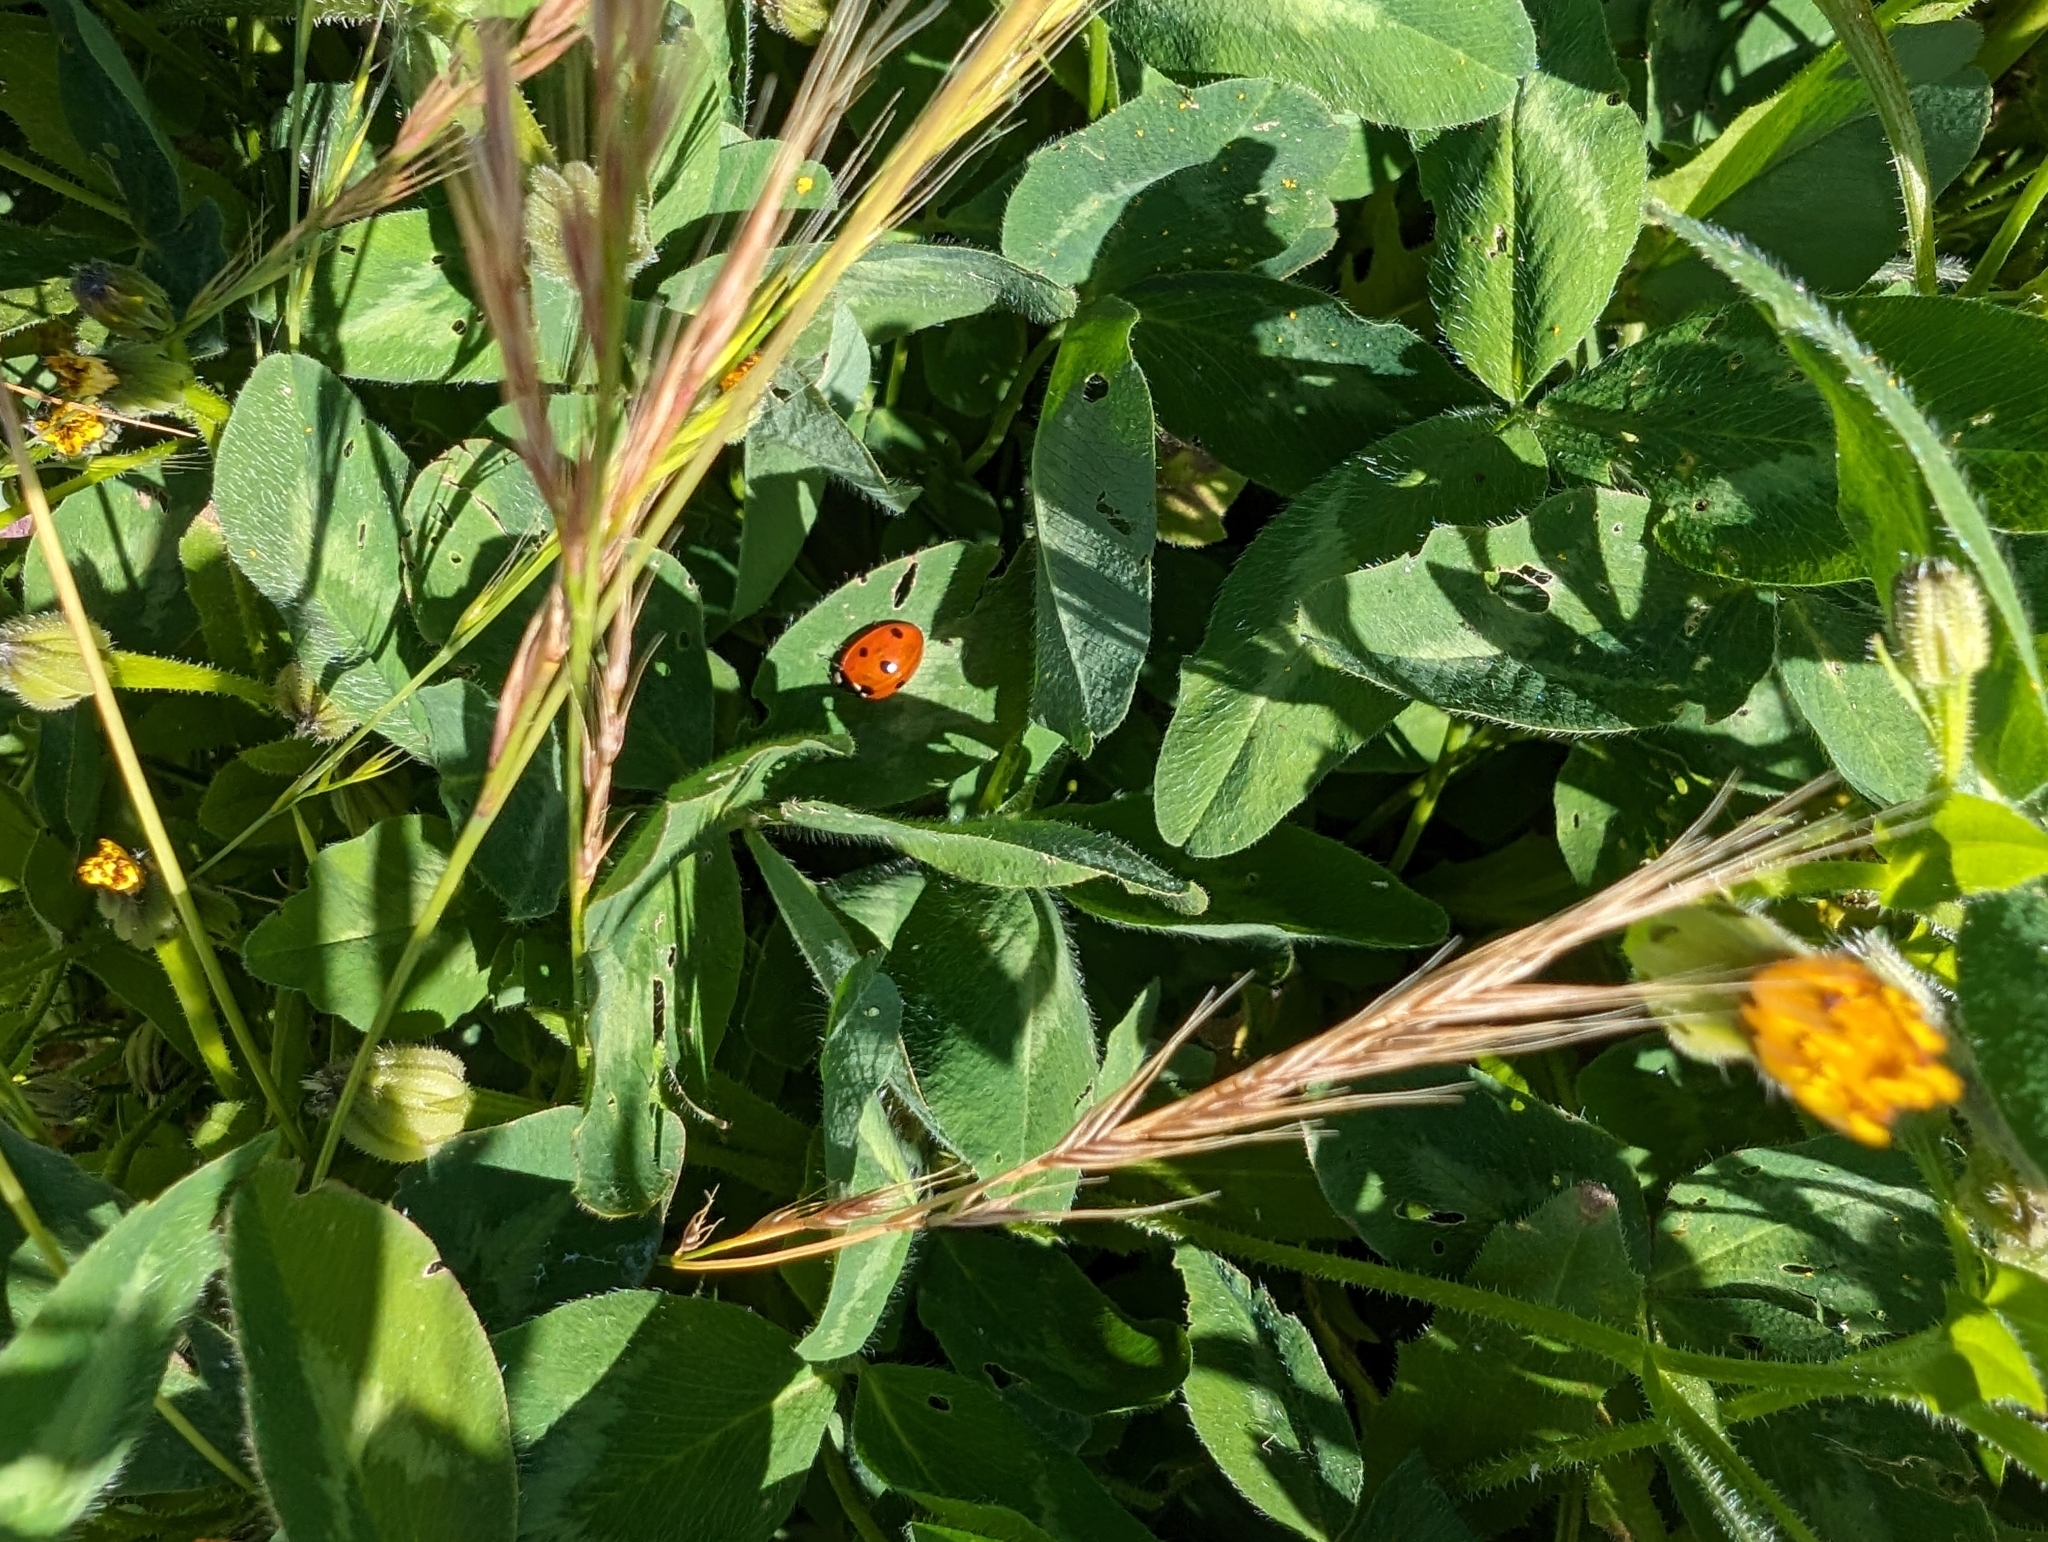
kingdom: Animalia
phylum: Arthropoda
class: Insecta
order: Coleoptera
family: Coccinellidae
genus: Coccinella
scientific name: Coccinella septempunctata
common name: Sevenspotted lady beetle
